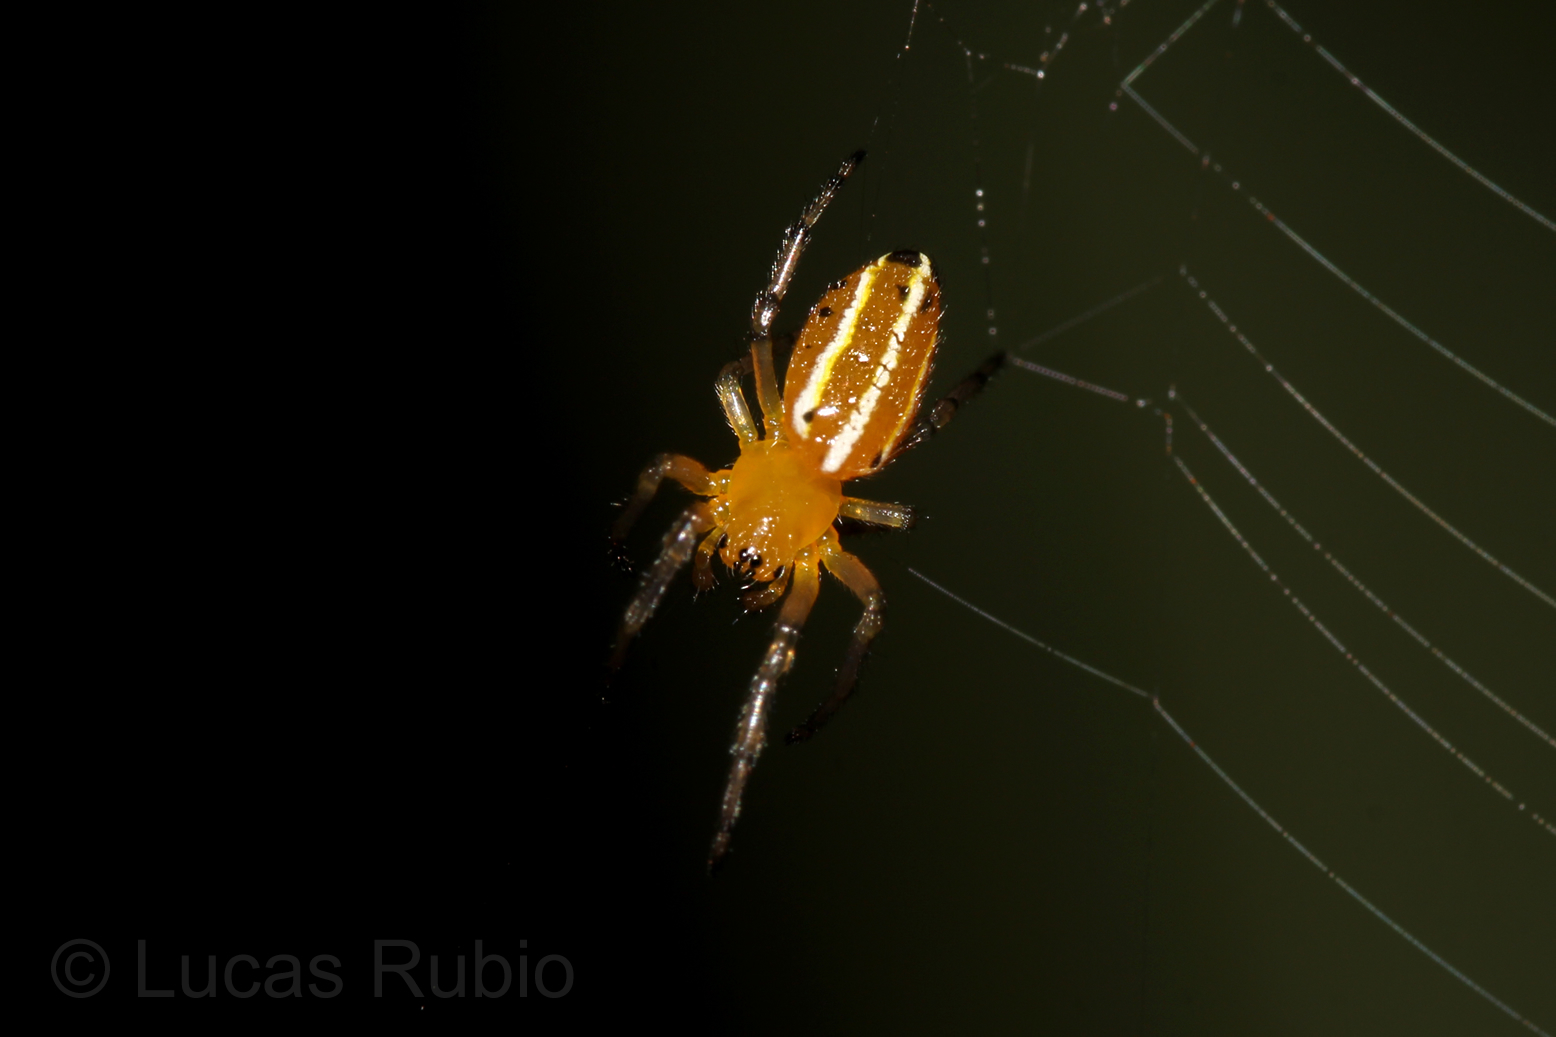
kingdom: Animalia
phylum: Arthropoda
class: Arachnida
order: Araneae
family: Araneidae
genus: Alpaida
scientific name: Alpaida rubellula
